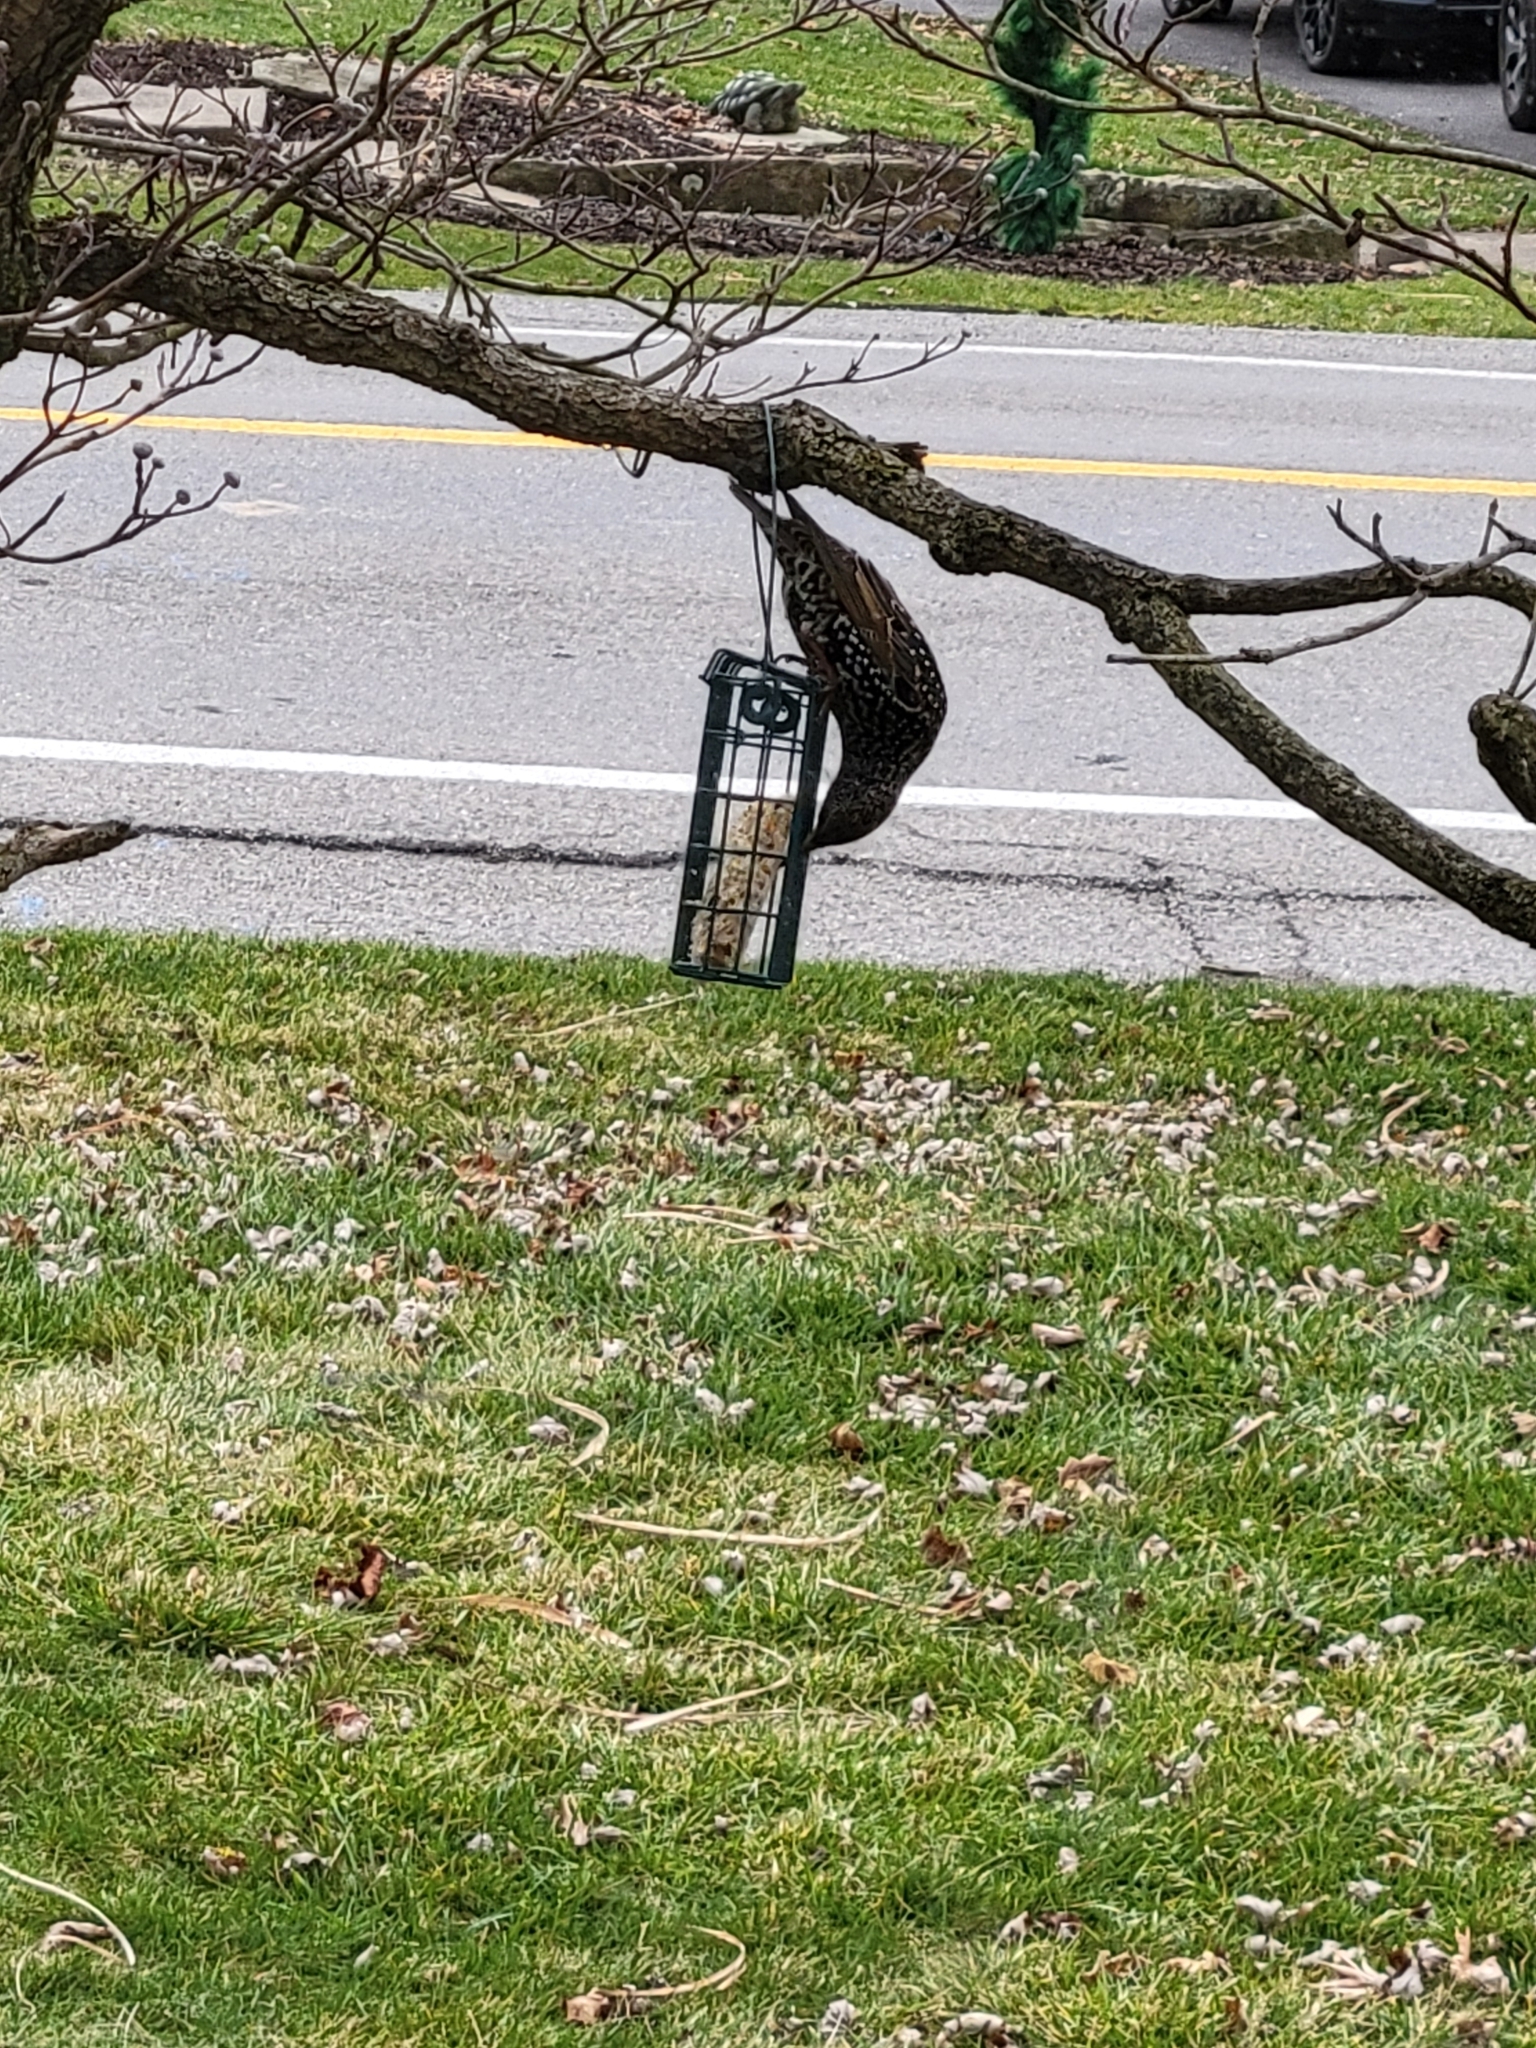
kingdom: Animalia
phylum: Chordata
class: Aves
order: Passeriformes
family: Sturnidae
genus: Sturnus
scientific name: Sturnus vulgaris
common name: Common starling
